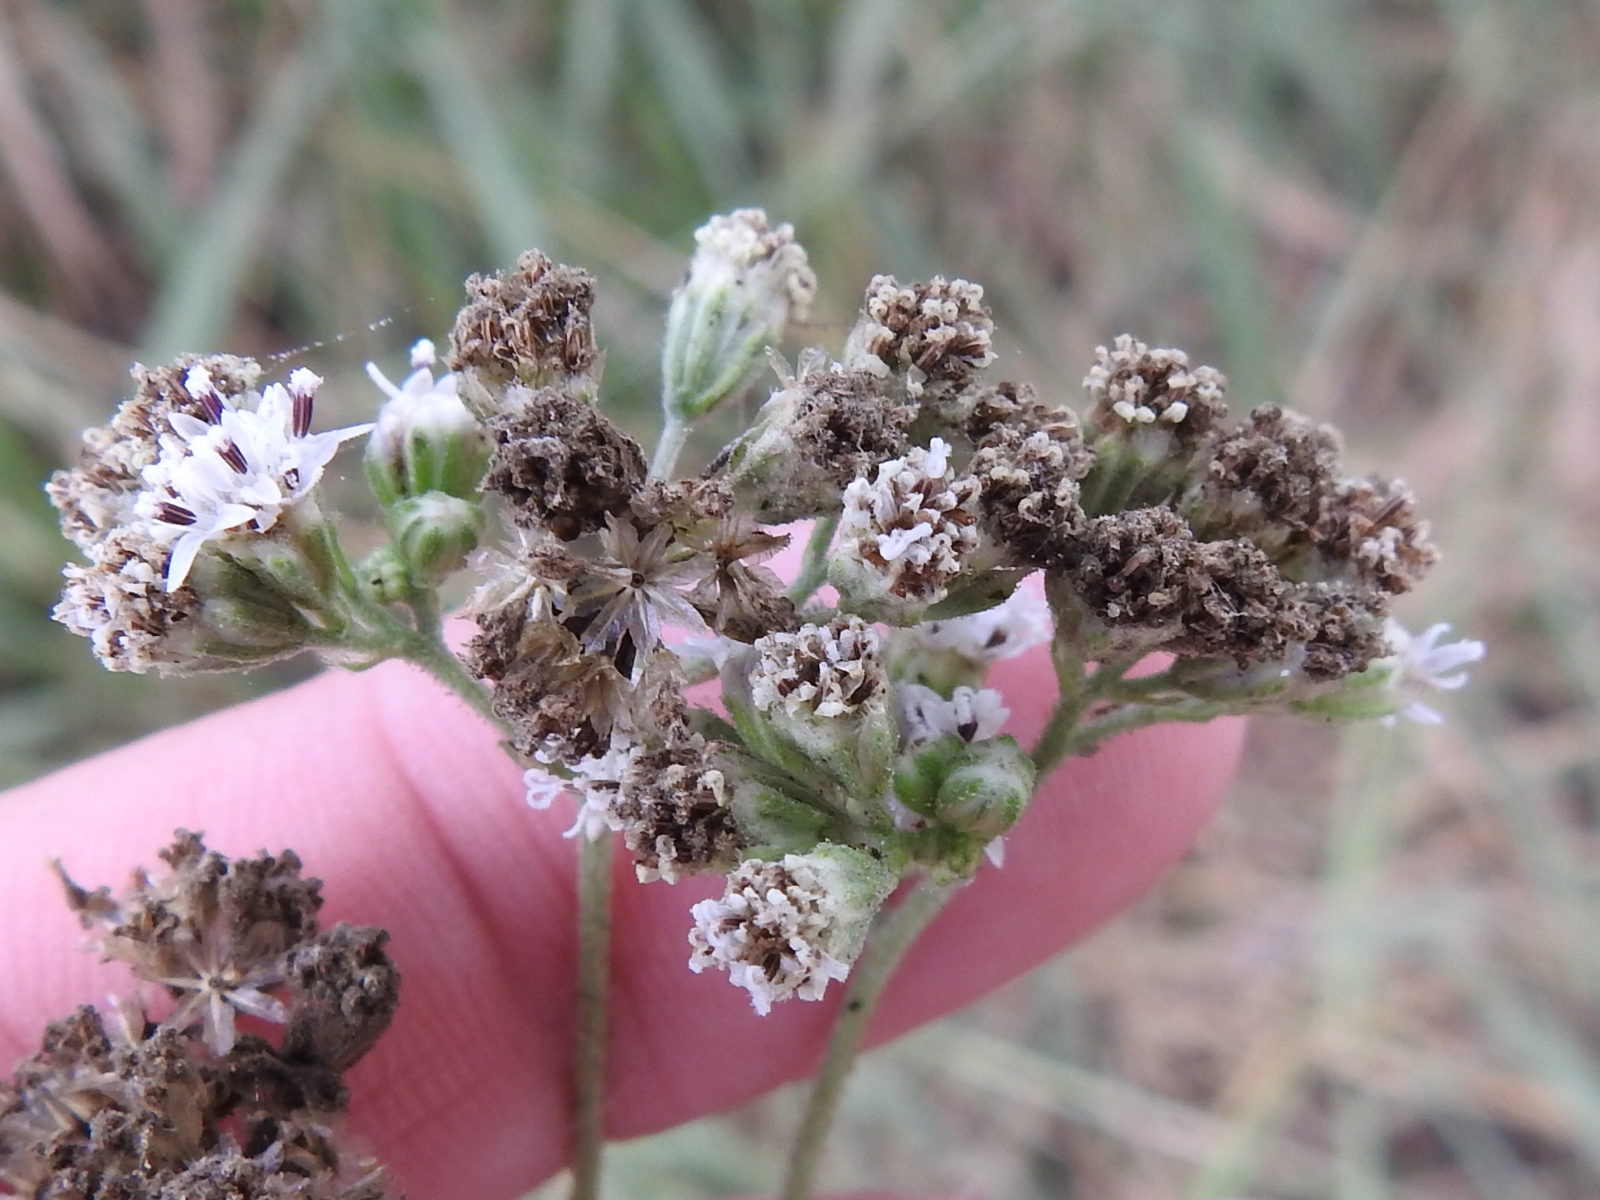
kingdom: Plantae
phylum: Tracheophyta
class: Magnoliopsida
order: Asterales
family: Asteraceae
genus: Florestina
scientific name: Florestina tripteris
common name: Sticky florestina
